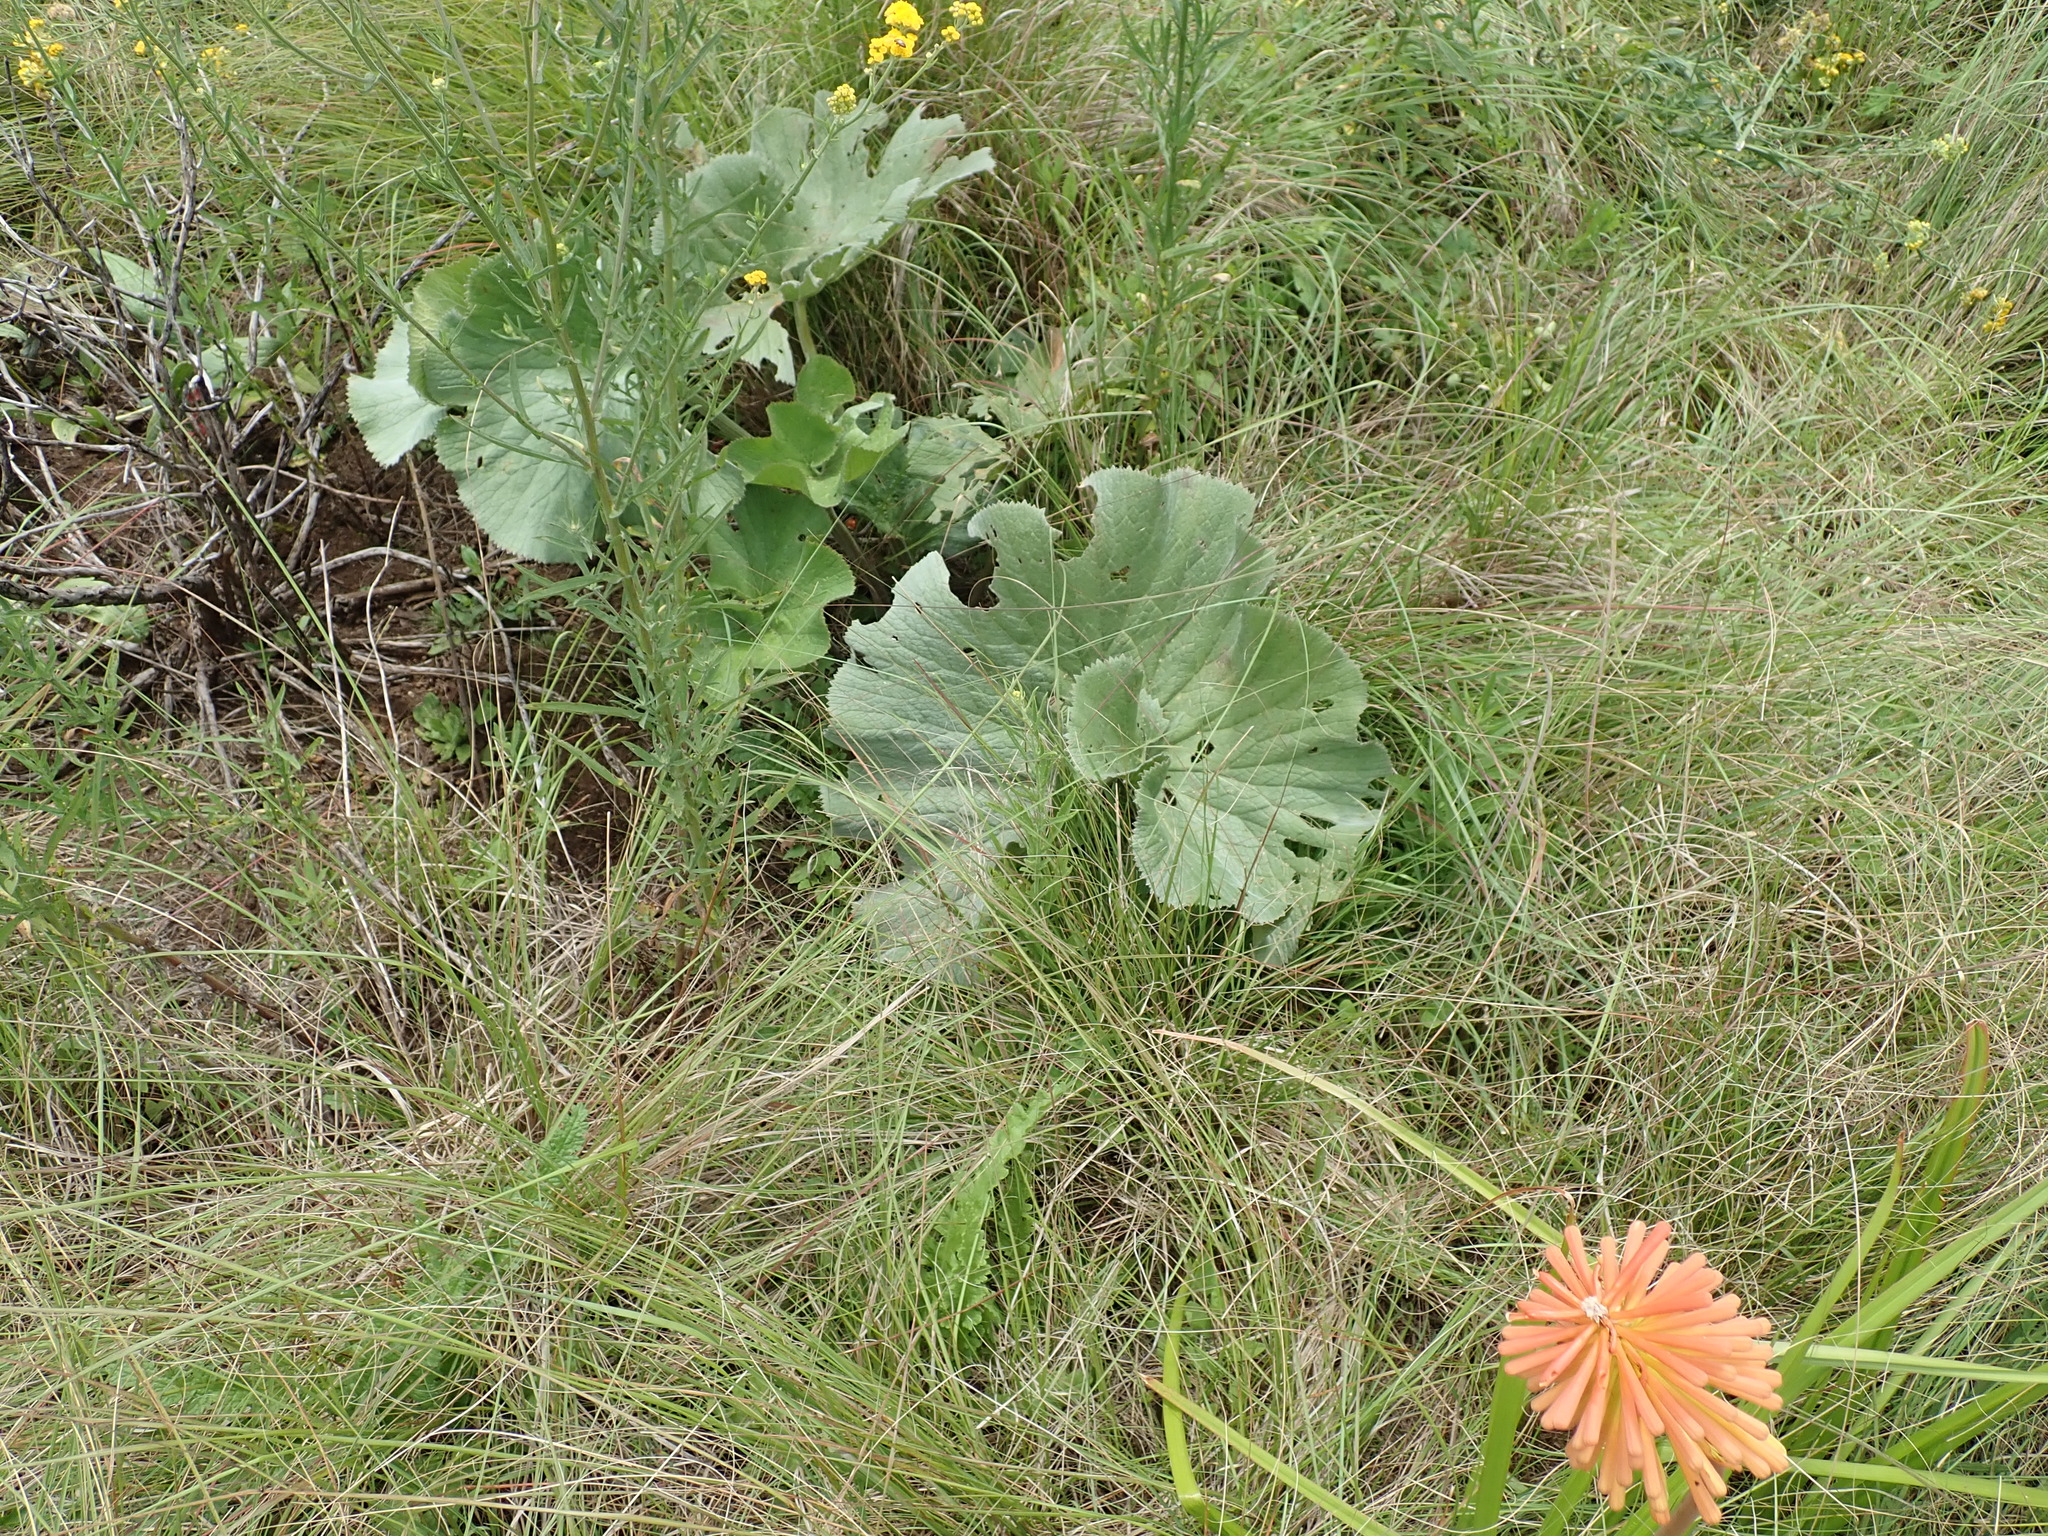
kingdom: Plantae
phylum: Tracheophyta
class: Magnoliopsida
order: Gunnerales
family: Gunneraceae
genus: Gunnera
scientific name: Gunnera perpensa
